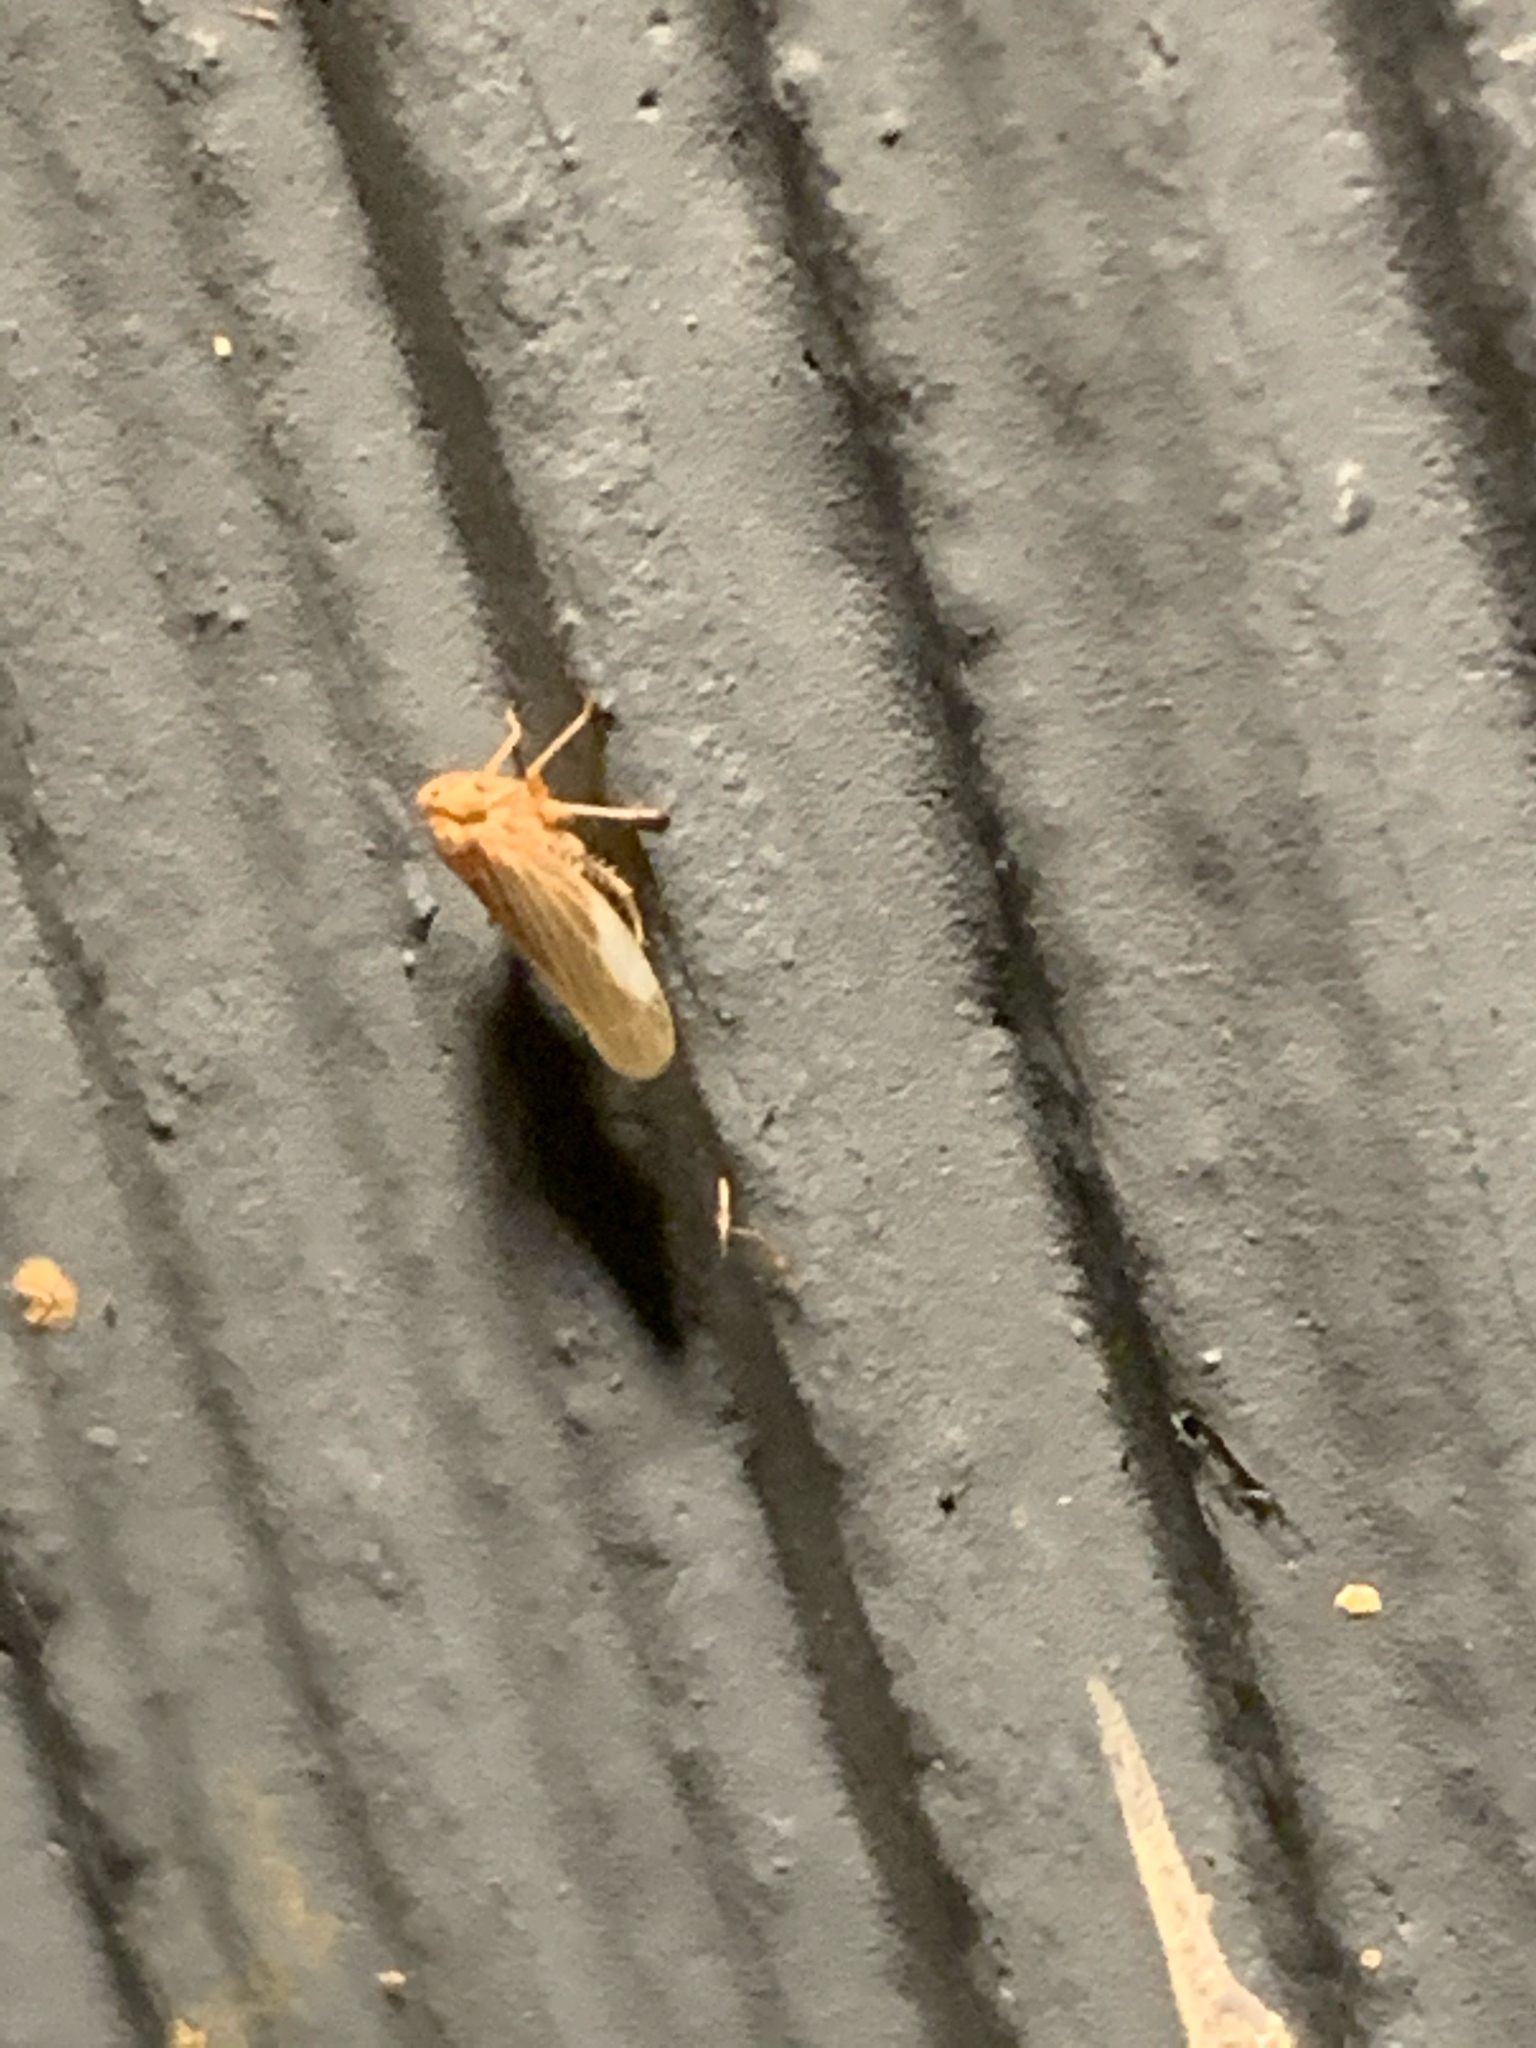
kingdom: Animalia
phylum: Arthropoda
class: Insecta
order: Hemiptera
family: Cicadellidae
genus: Agallia
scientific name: Agallia
